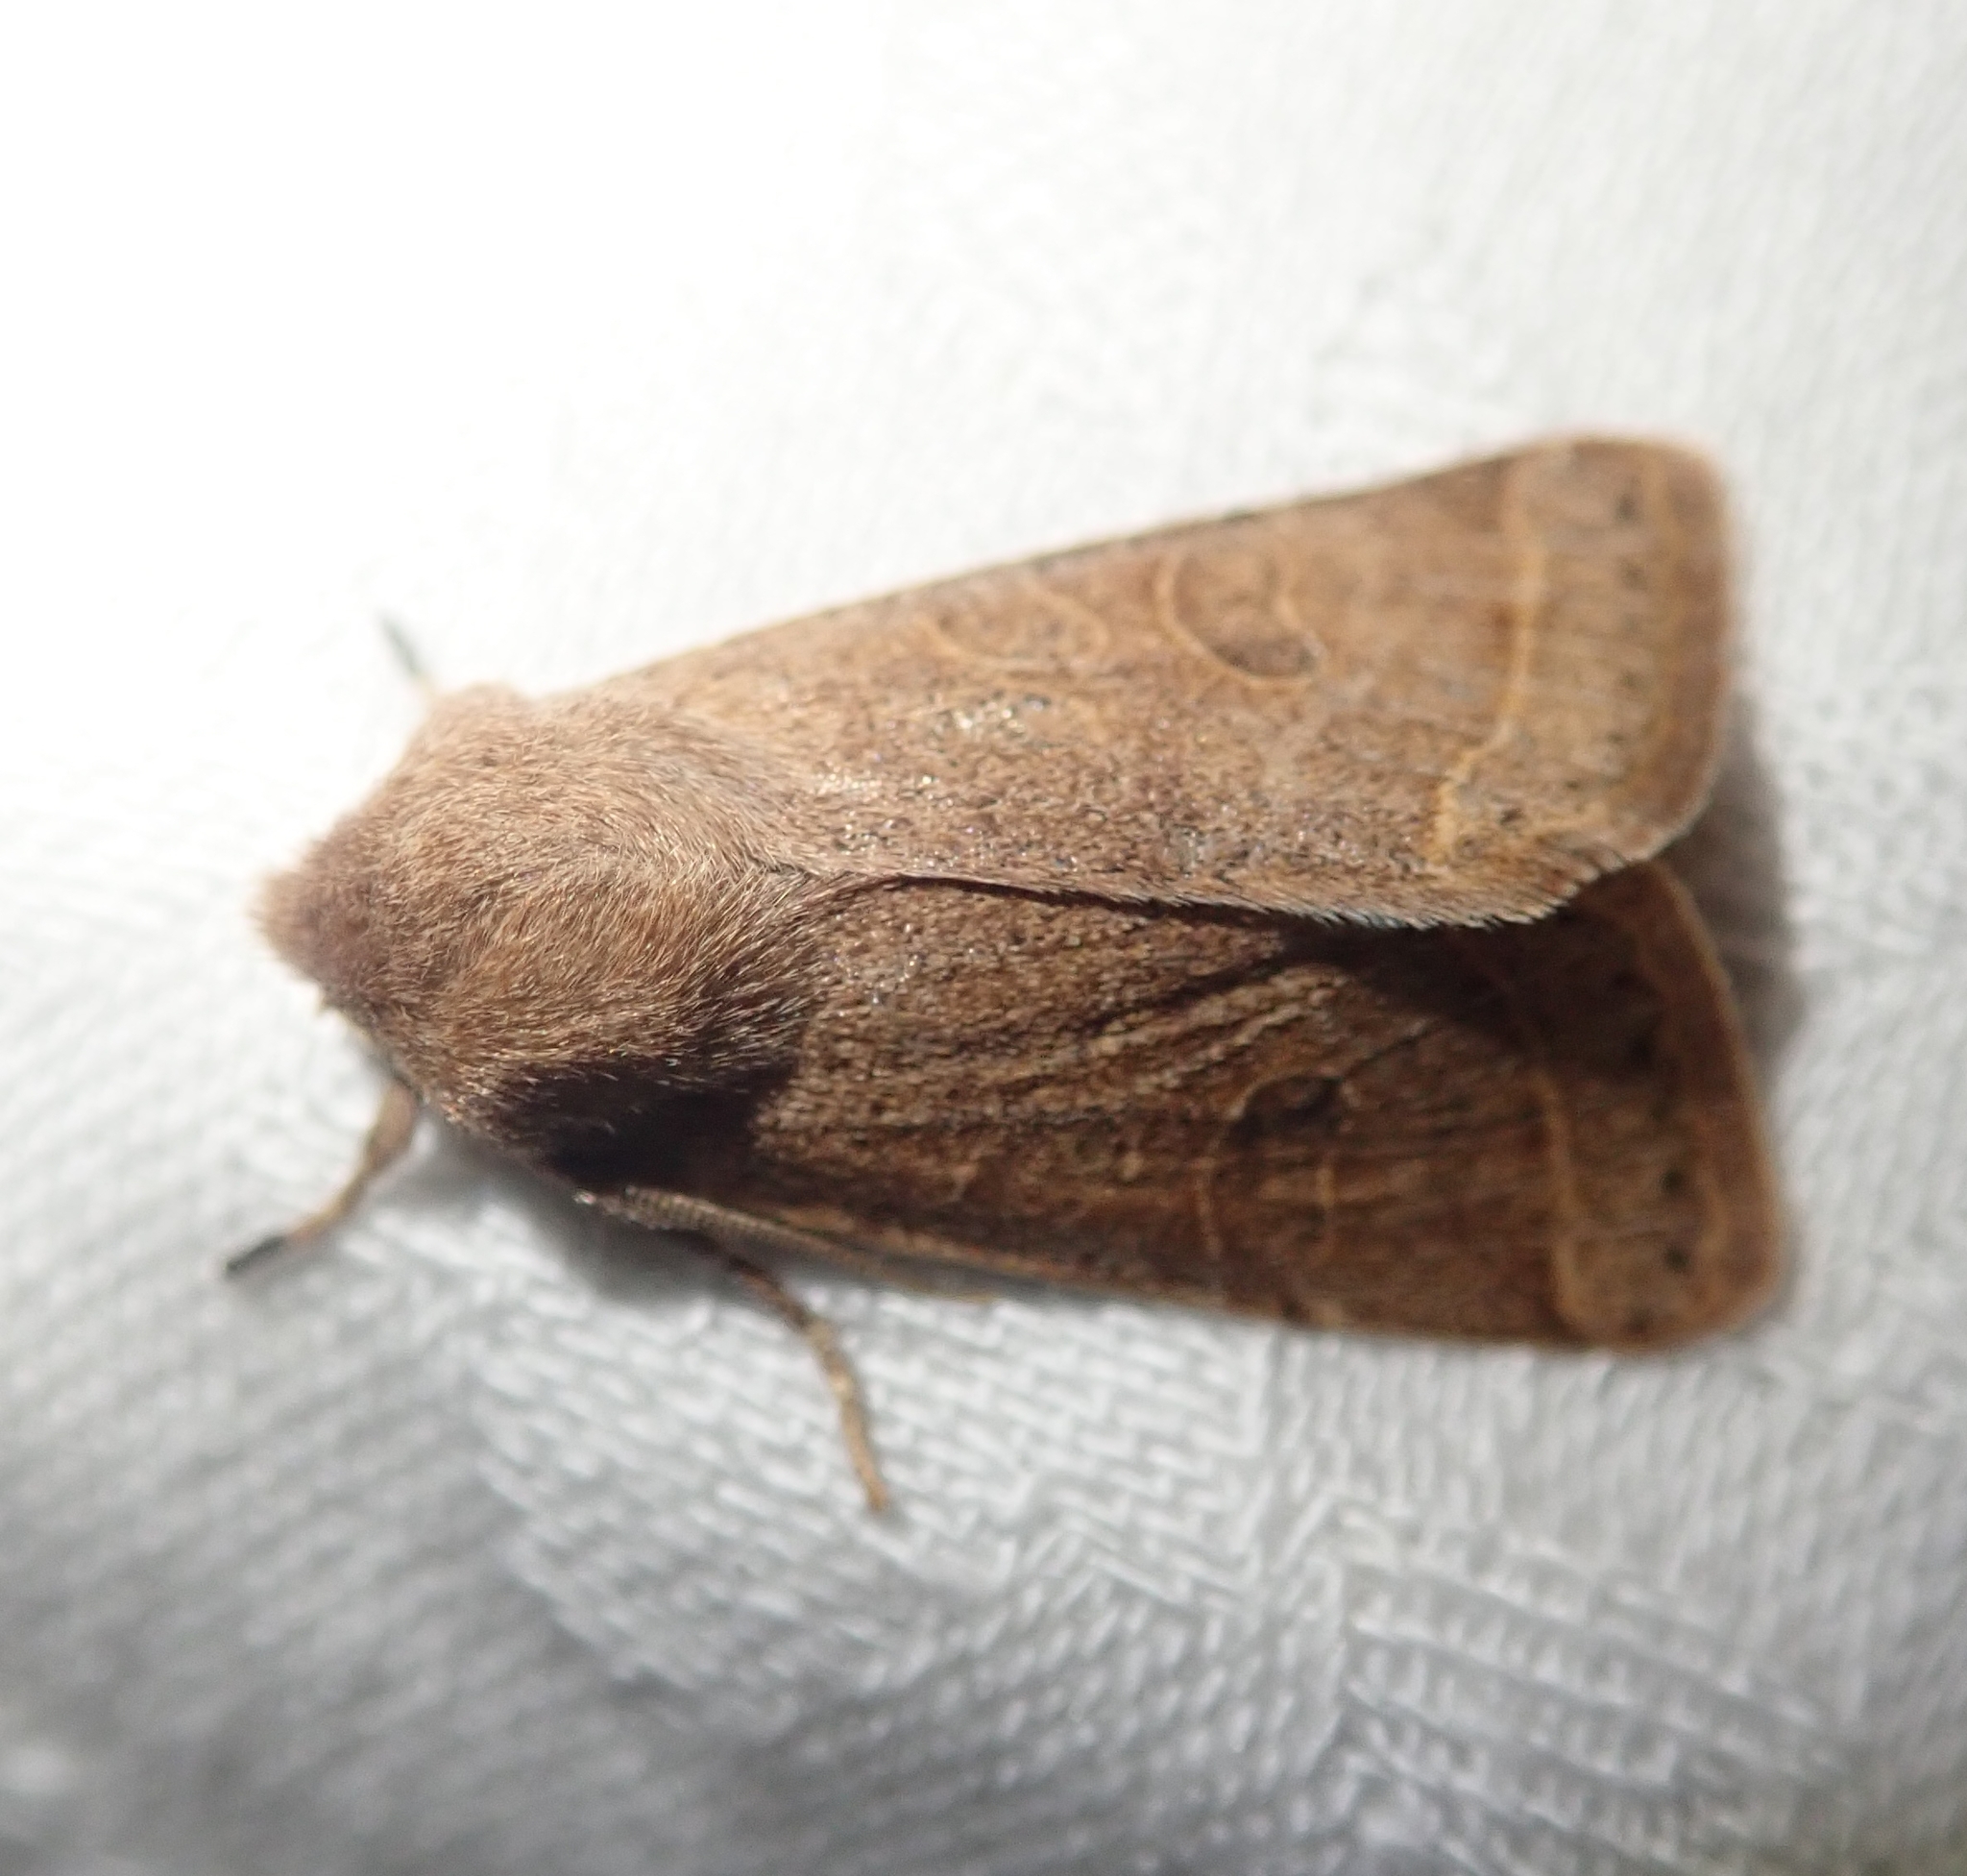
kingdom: Animalia
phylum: Arthropoda
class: Insecta
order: Lepidoptera
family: Noctuidae
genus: Orthosia
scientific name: Orthosia cerasi
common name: Common quaker
